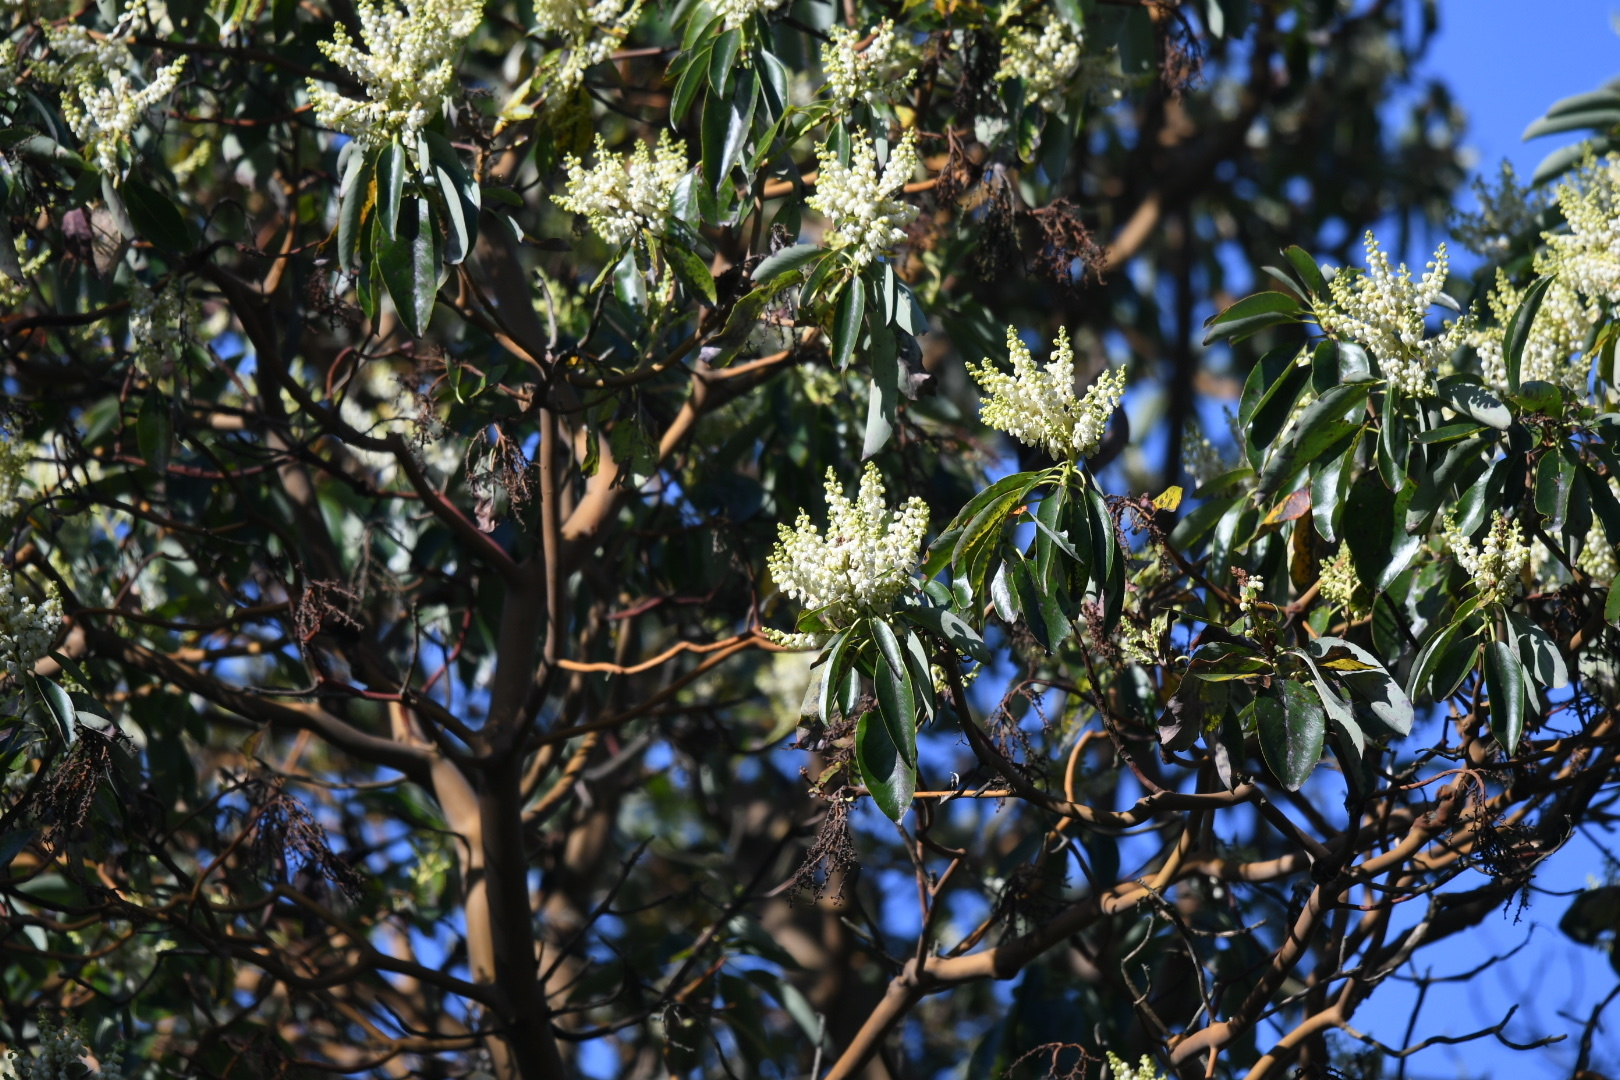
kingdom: Plantae
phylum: Tracheophyta
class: Magnoliopsida
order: Ericales
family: Ericaceae
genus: Arbutus
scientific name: Arbutus menziesii
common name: Pacific madrone
